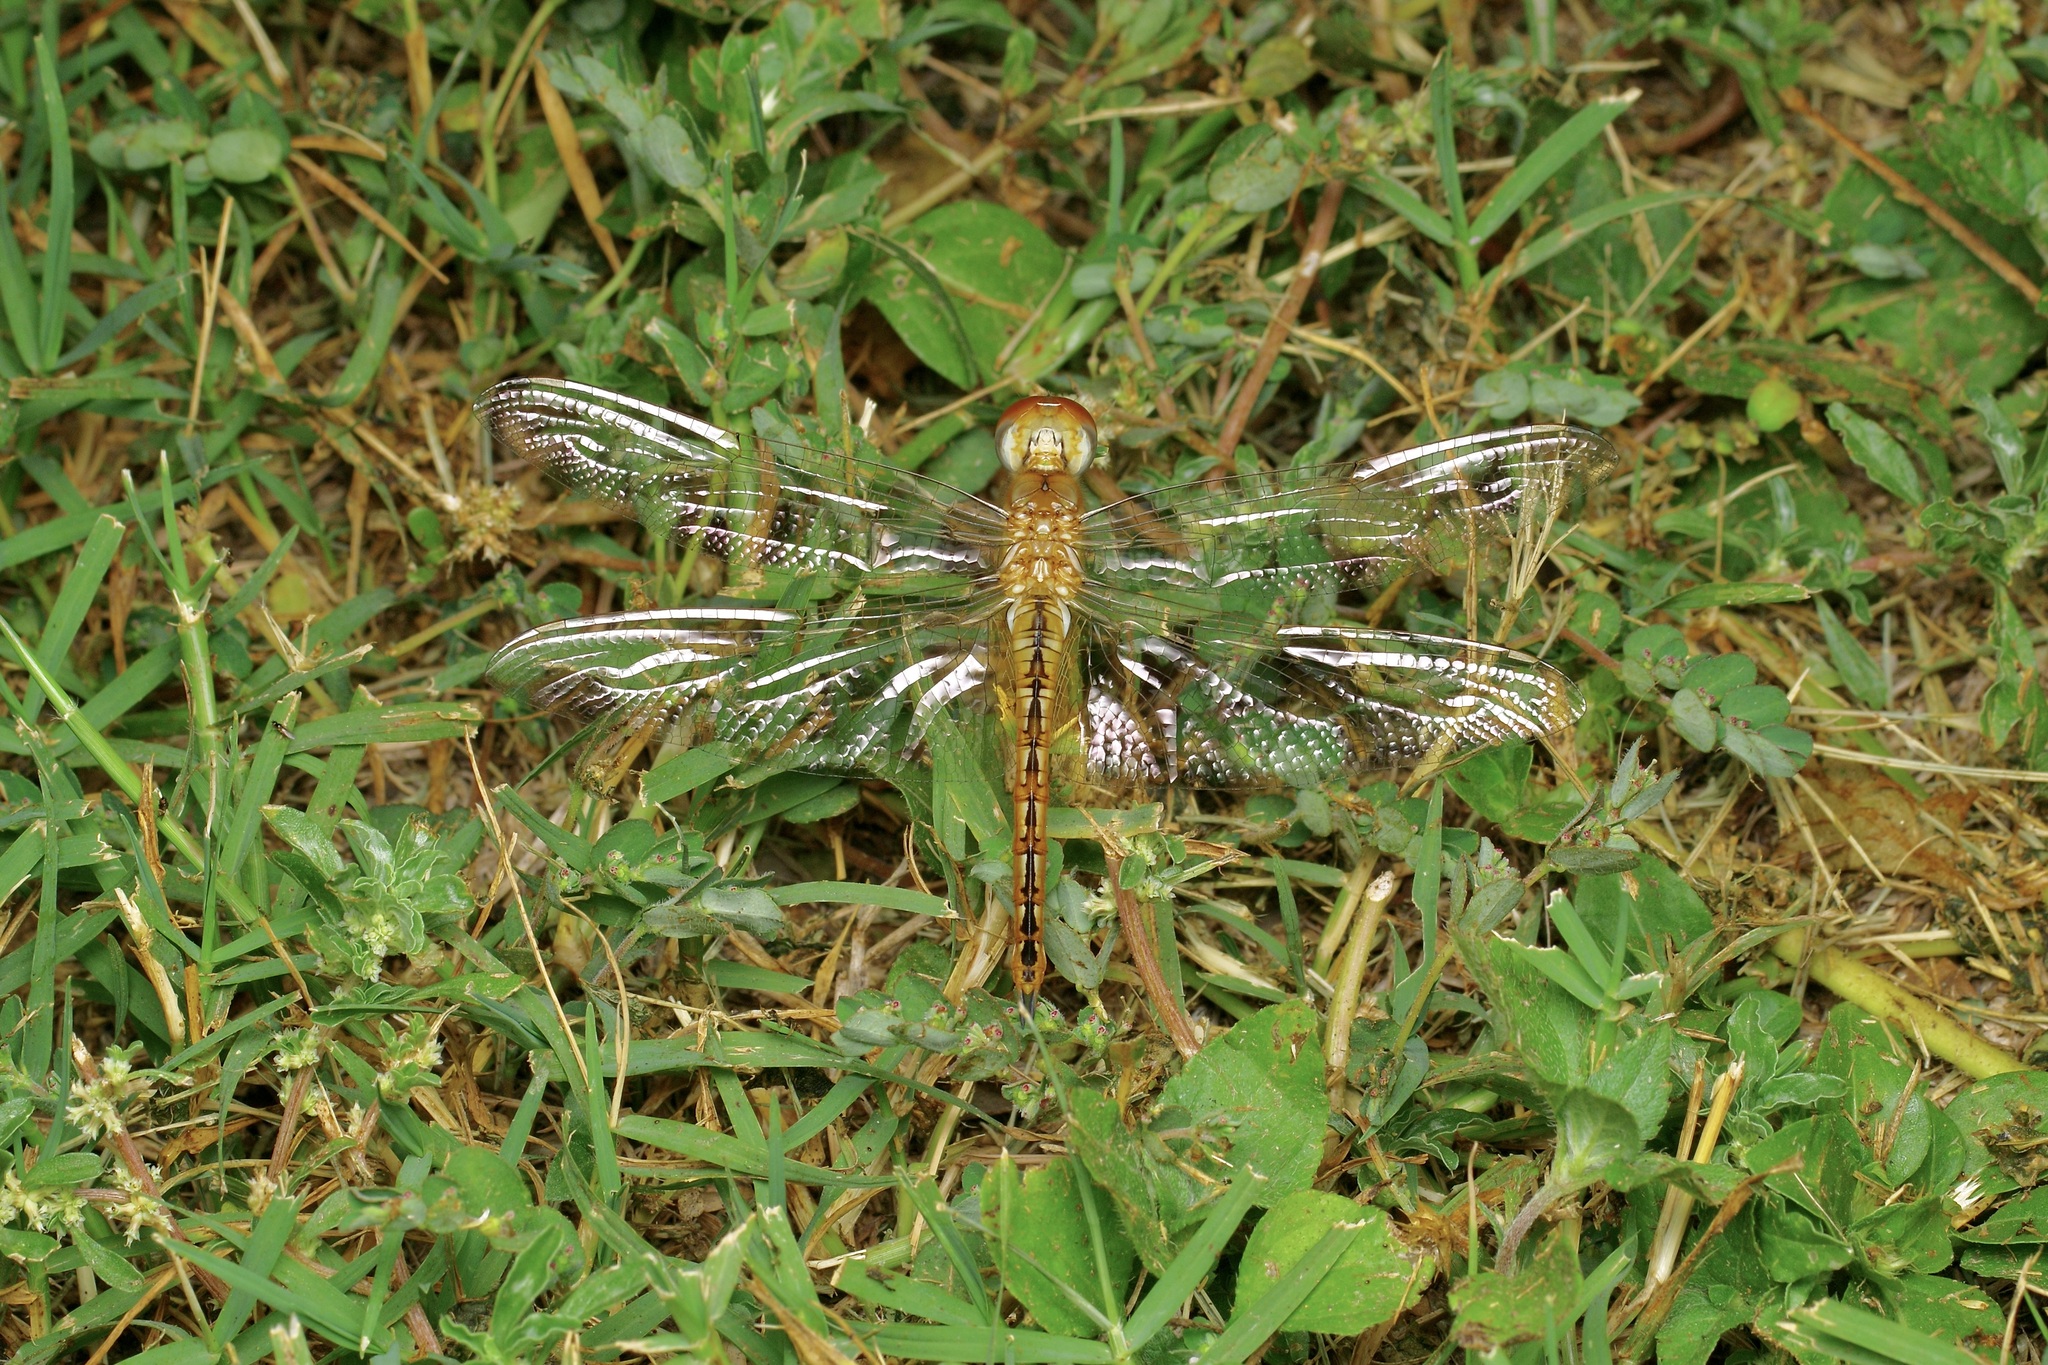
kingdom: Animalia
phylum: Arthropoda
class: Insecta
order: Odonata
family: Libellulidae
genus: Pantala
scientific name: Pantala flavescens
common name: Wandering glider
